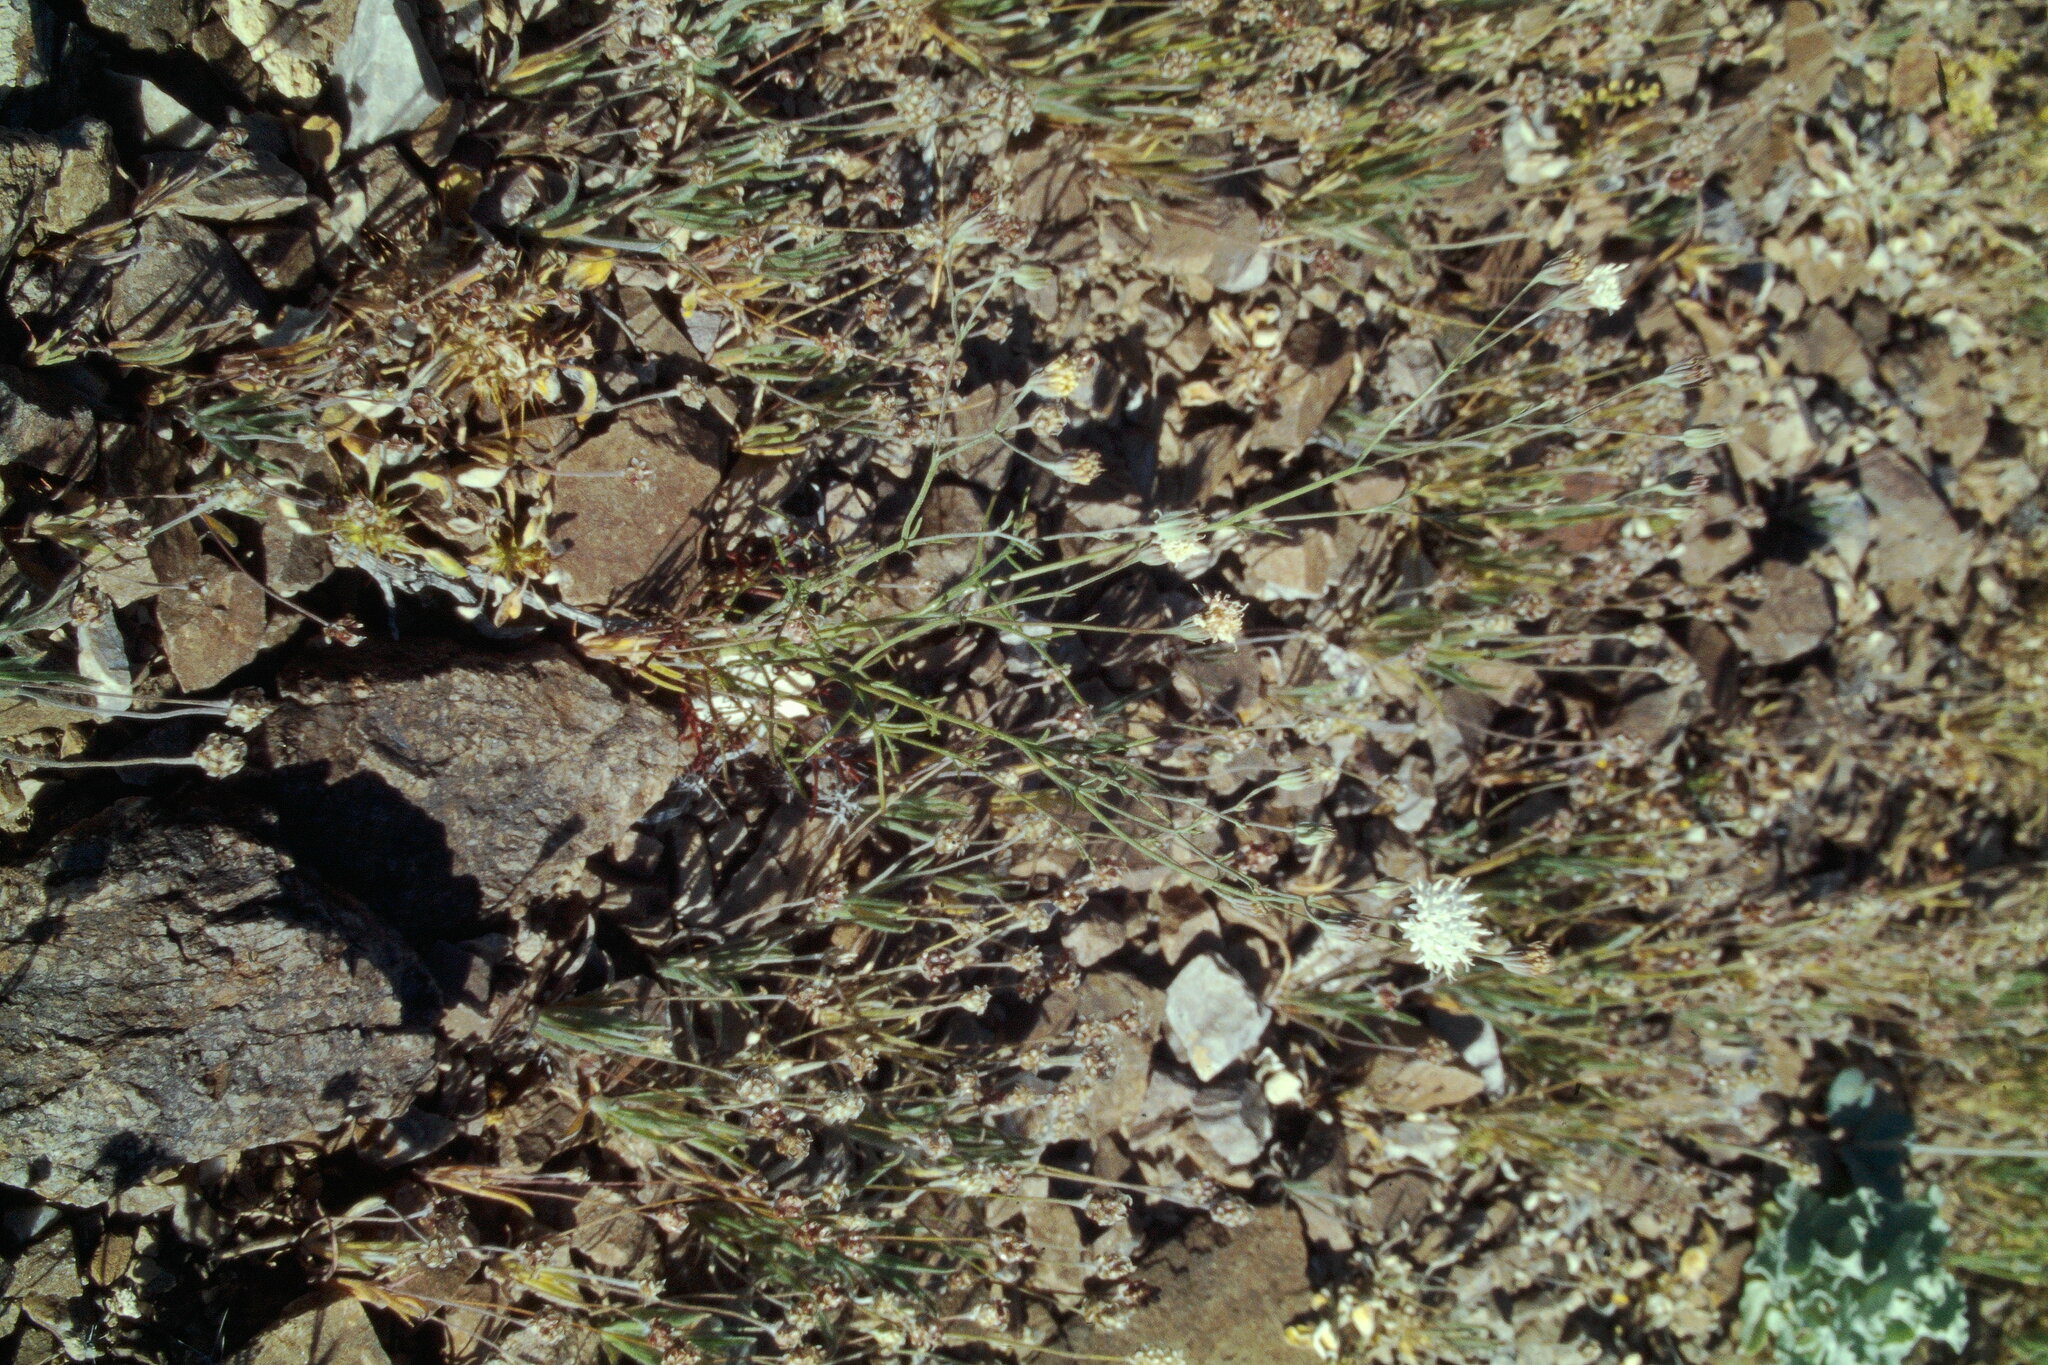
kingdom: Plantae
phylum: Tracheophyta
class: Magnoliopsida
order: Asterales
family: Asteraceae
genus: Chaenactis
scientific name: Chaenactis carphoclinia
